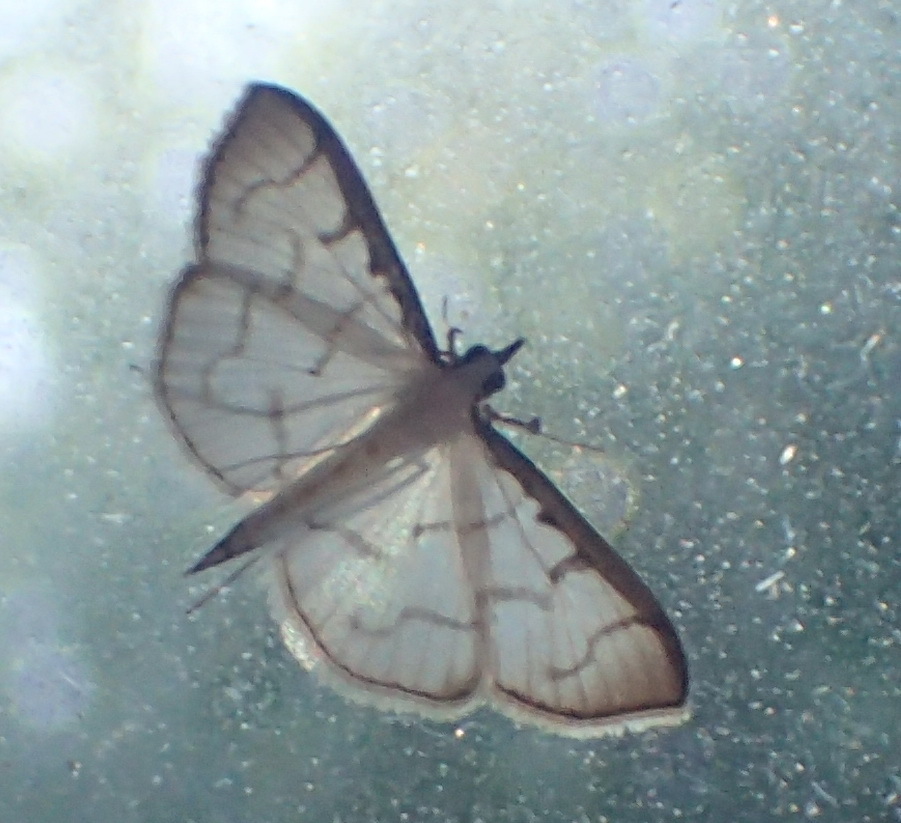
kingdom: Animalia
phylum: Arthropoda
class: Insecta
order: Lepidoptera
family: Crambidae
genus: Antigastra
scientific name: Antigastra morysalis
